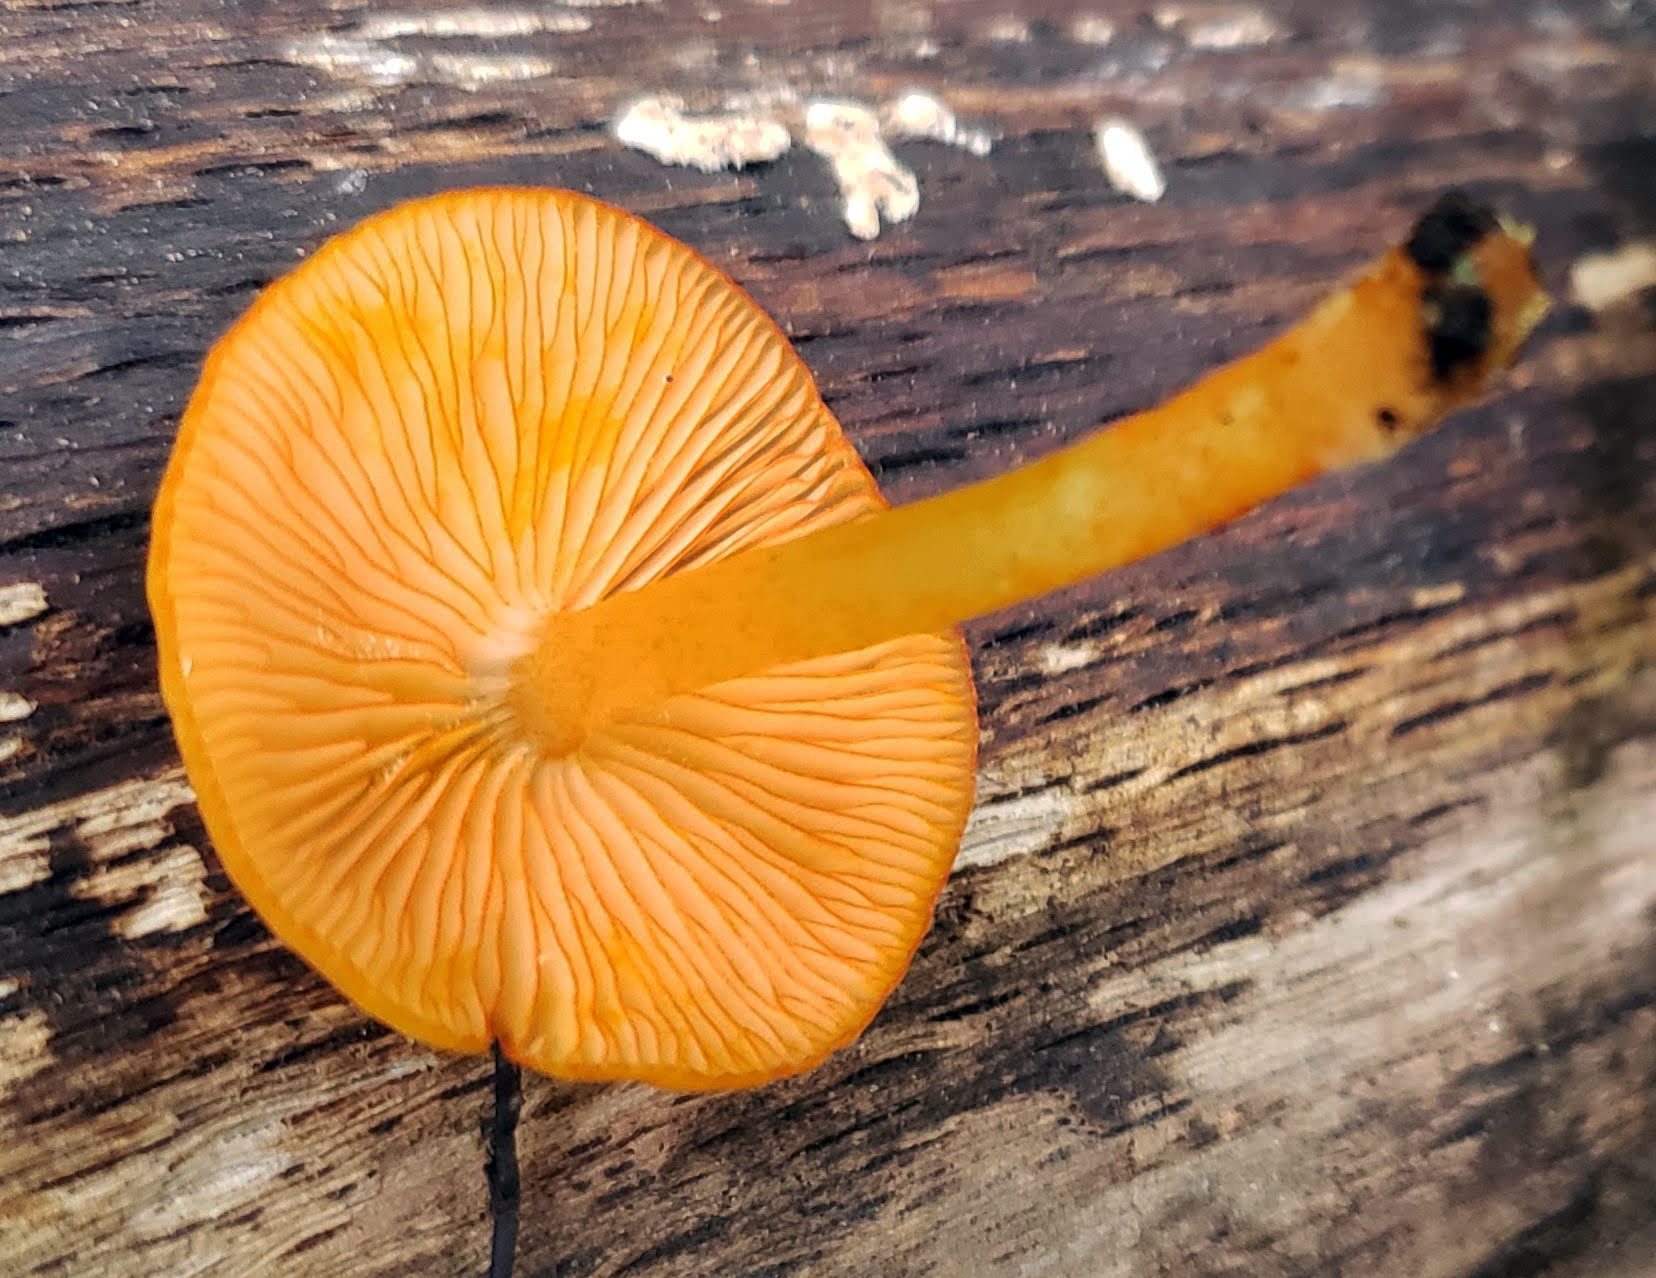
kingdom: Fungi
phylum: Basidiomycota
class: Agaricomycetes
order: Agaricales
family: Mycenaceae
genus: Mycena
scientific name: Mycena leaiana
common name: Orange mycena
